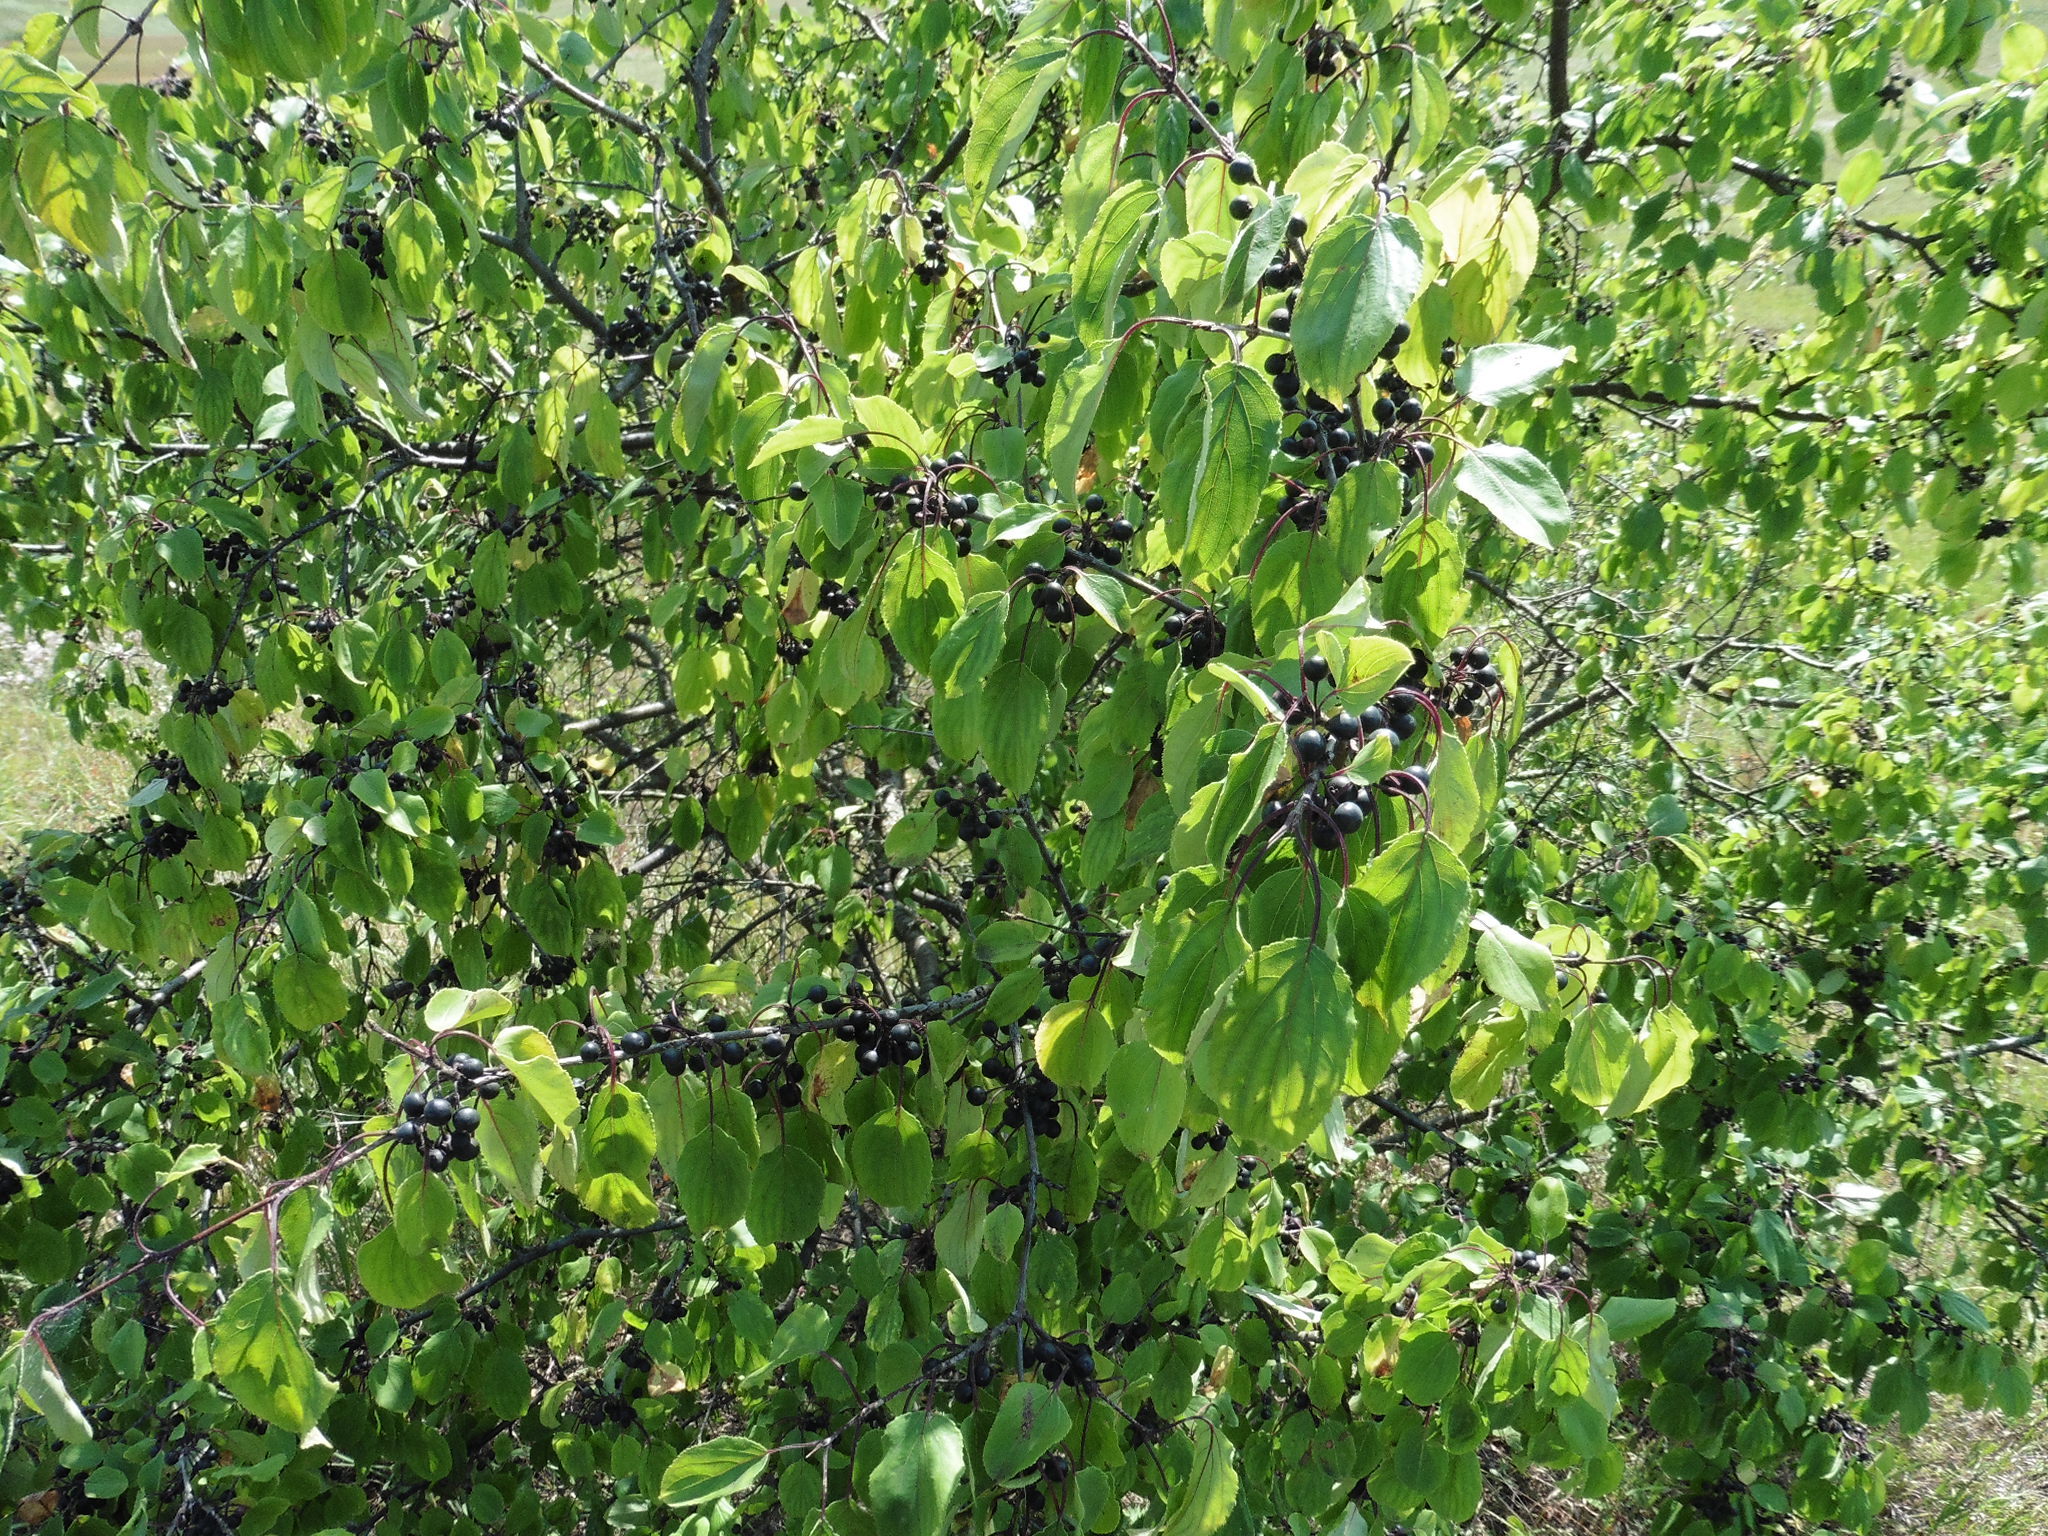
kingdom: Plantae
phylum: Tracheophyta
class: Magnoliopsida
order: Rosales
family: Rhamnaceae
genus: Rhamnus
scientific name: Rhamnus cathartica
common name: Common buckthorn
